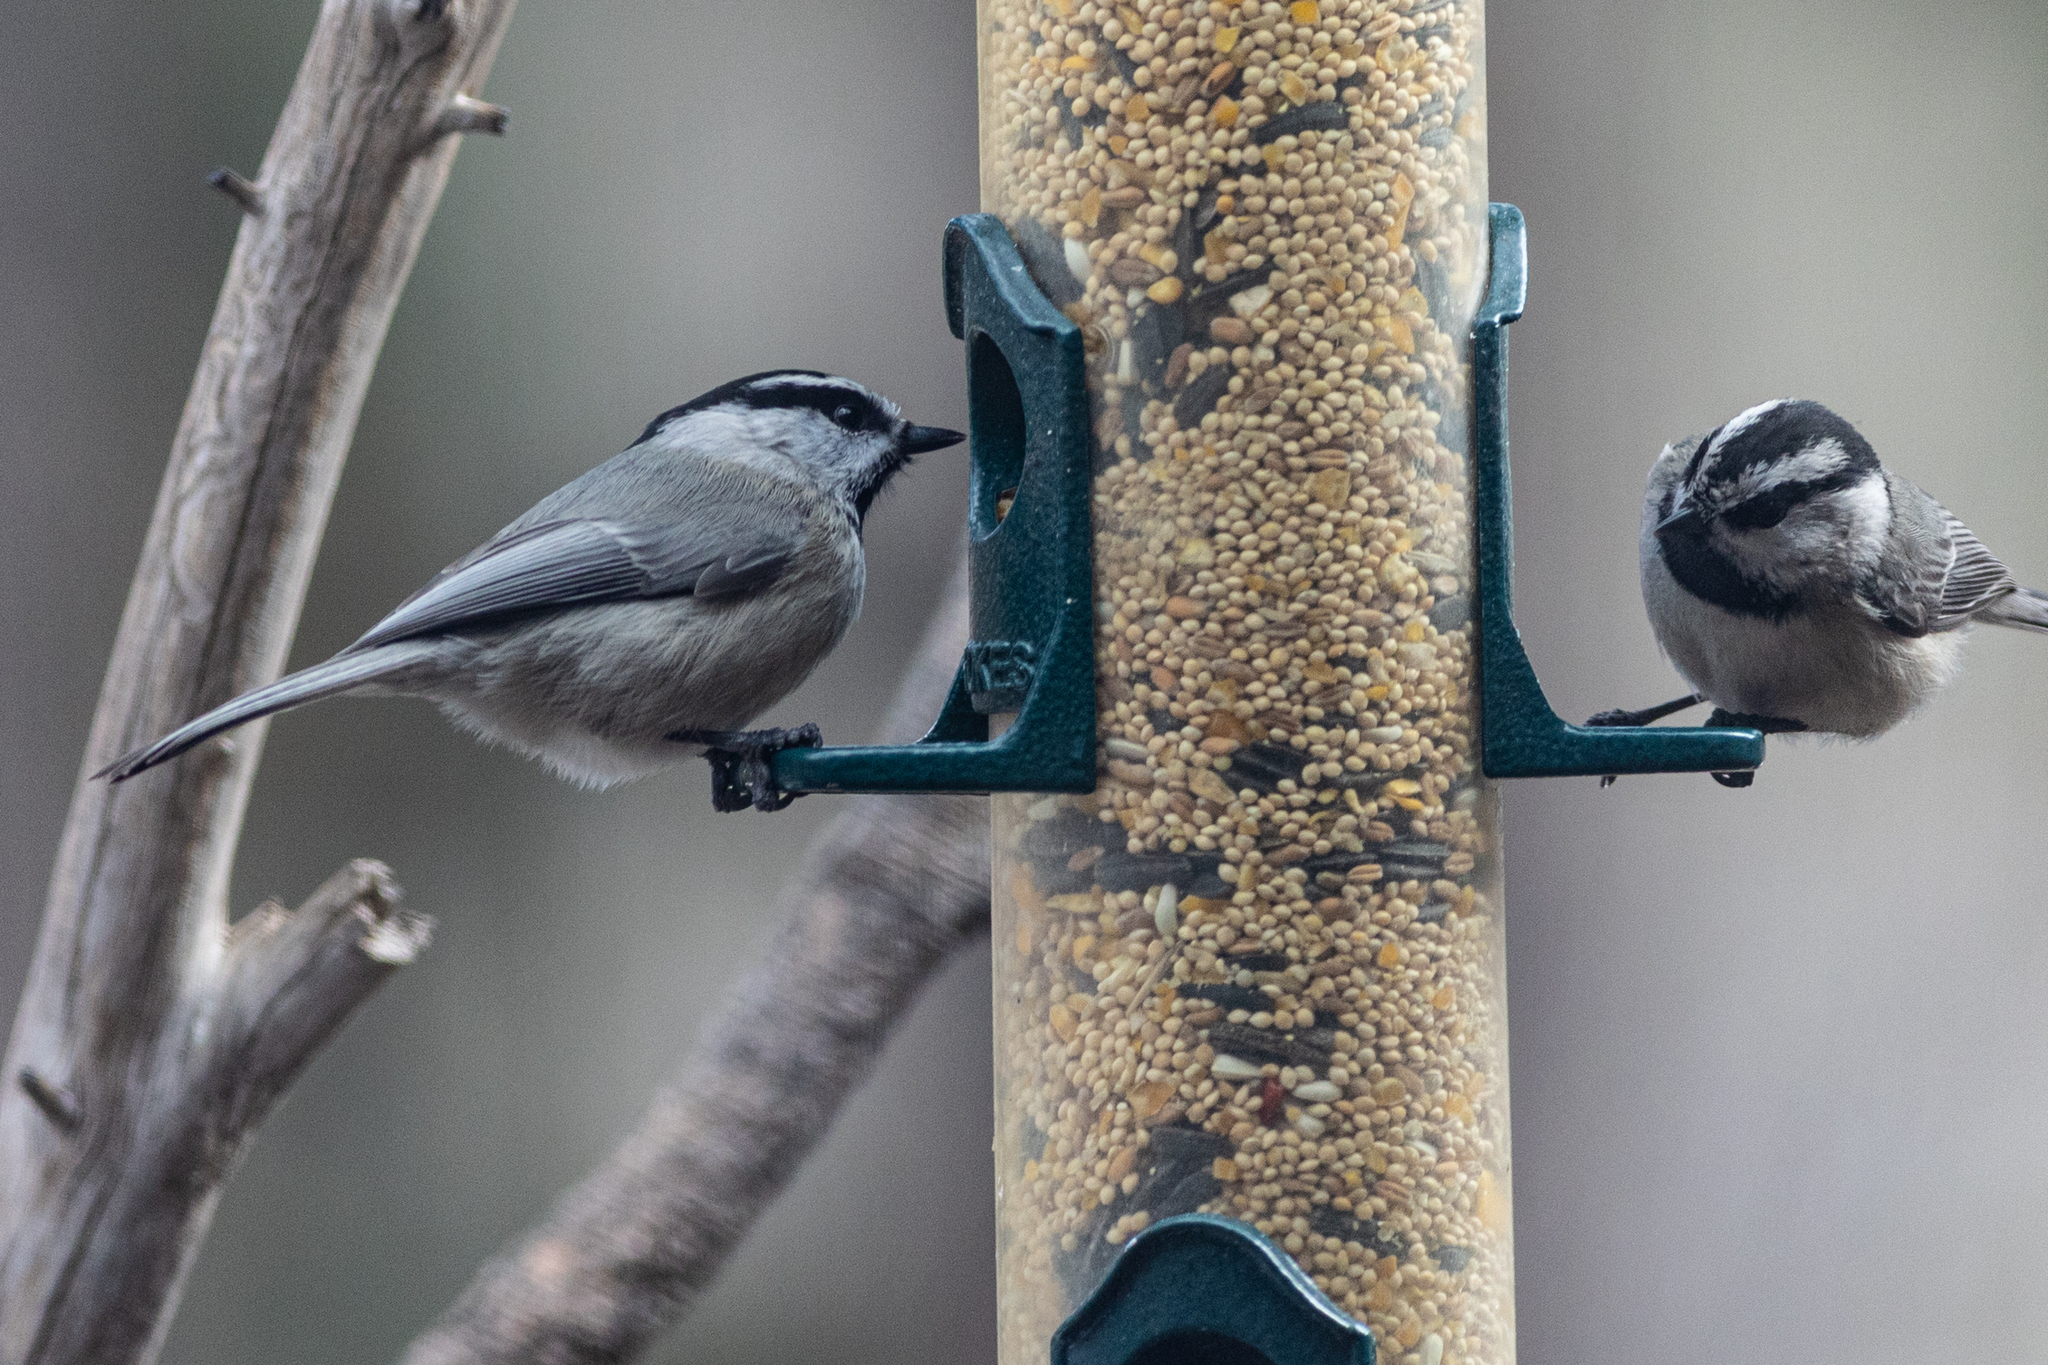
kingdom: Animalia
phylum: Chordata
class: Aves
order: Passeriformes
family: Paridae
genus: Poecile
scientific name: Poecile gambeli
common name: Mountain chickadee
